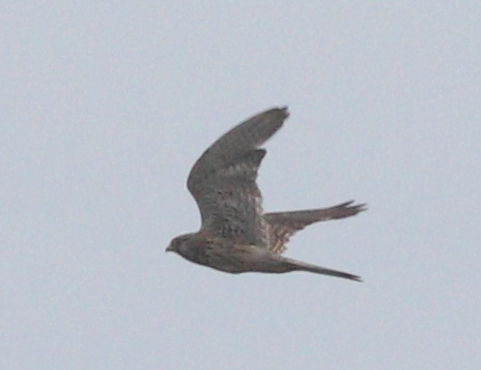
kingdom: Animalia
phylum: Chordata
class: Aves
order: Falconiformes
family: Falconidae
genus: Falco
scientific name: Falco tinnunculus
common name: Common kestrel
